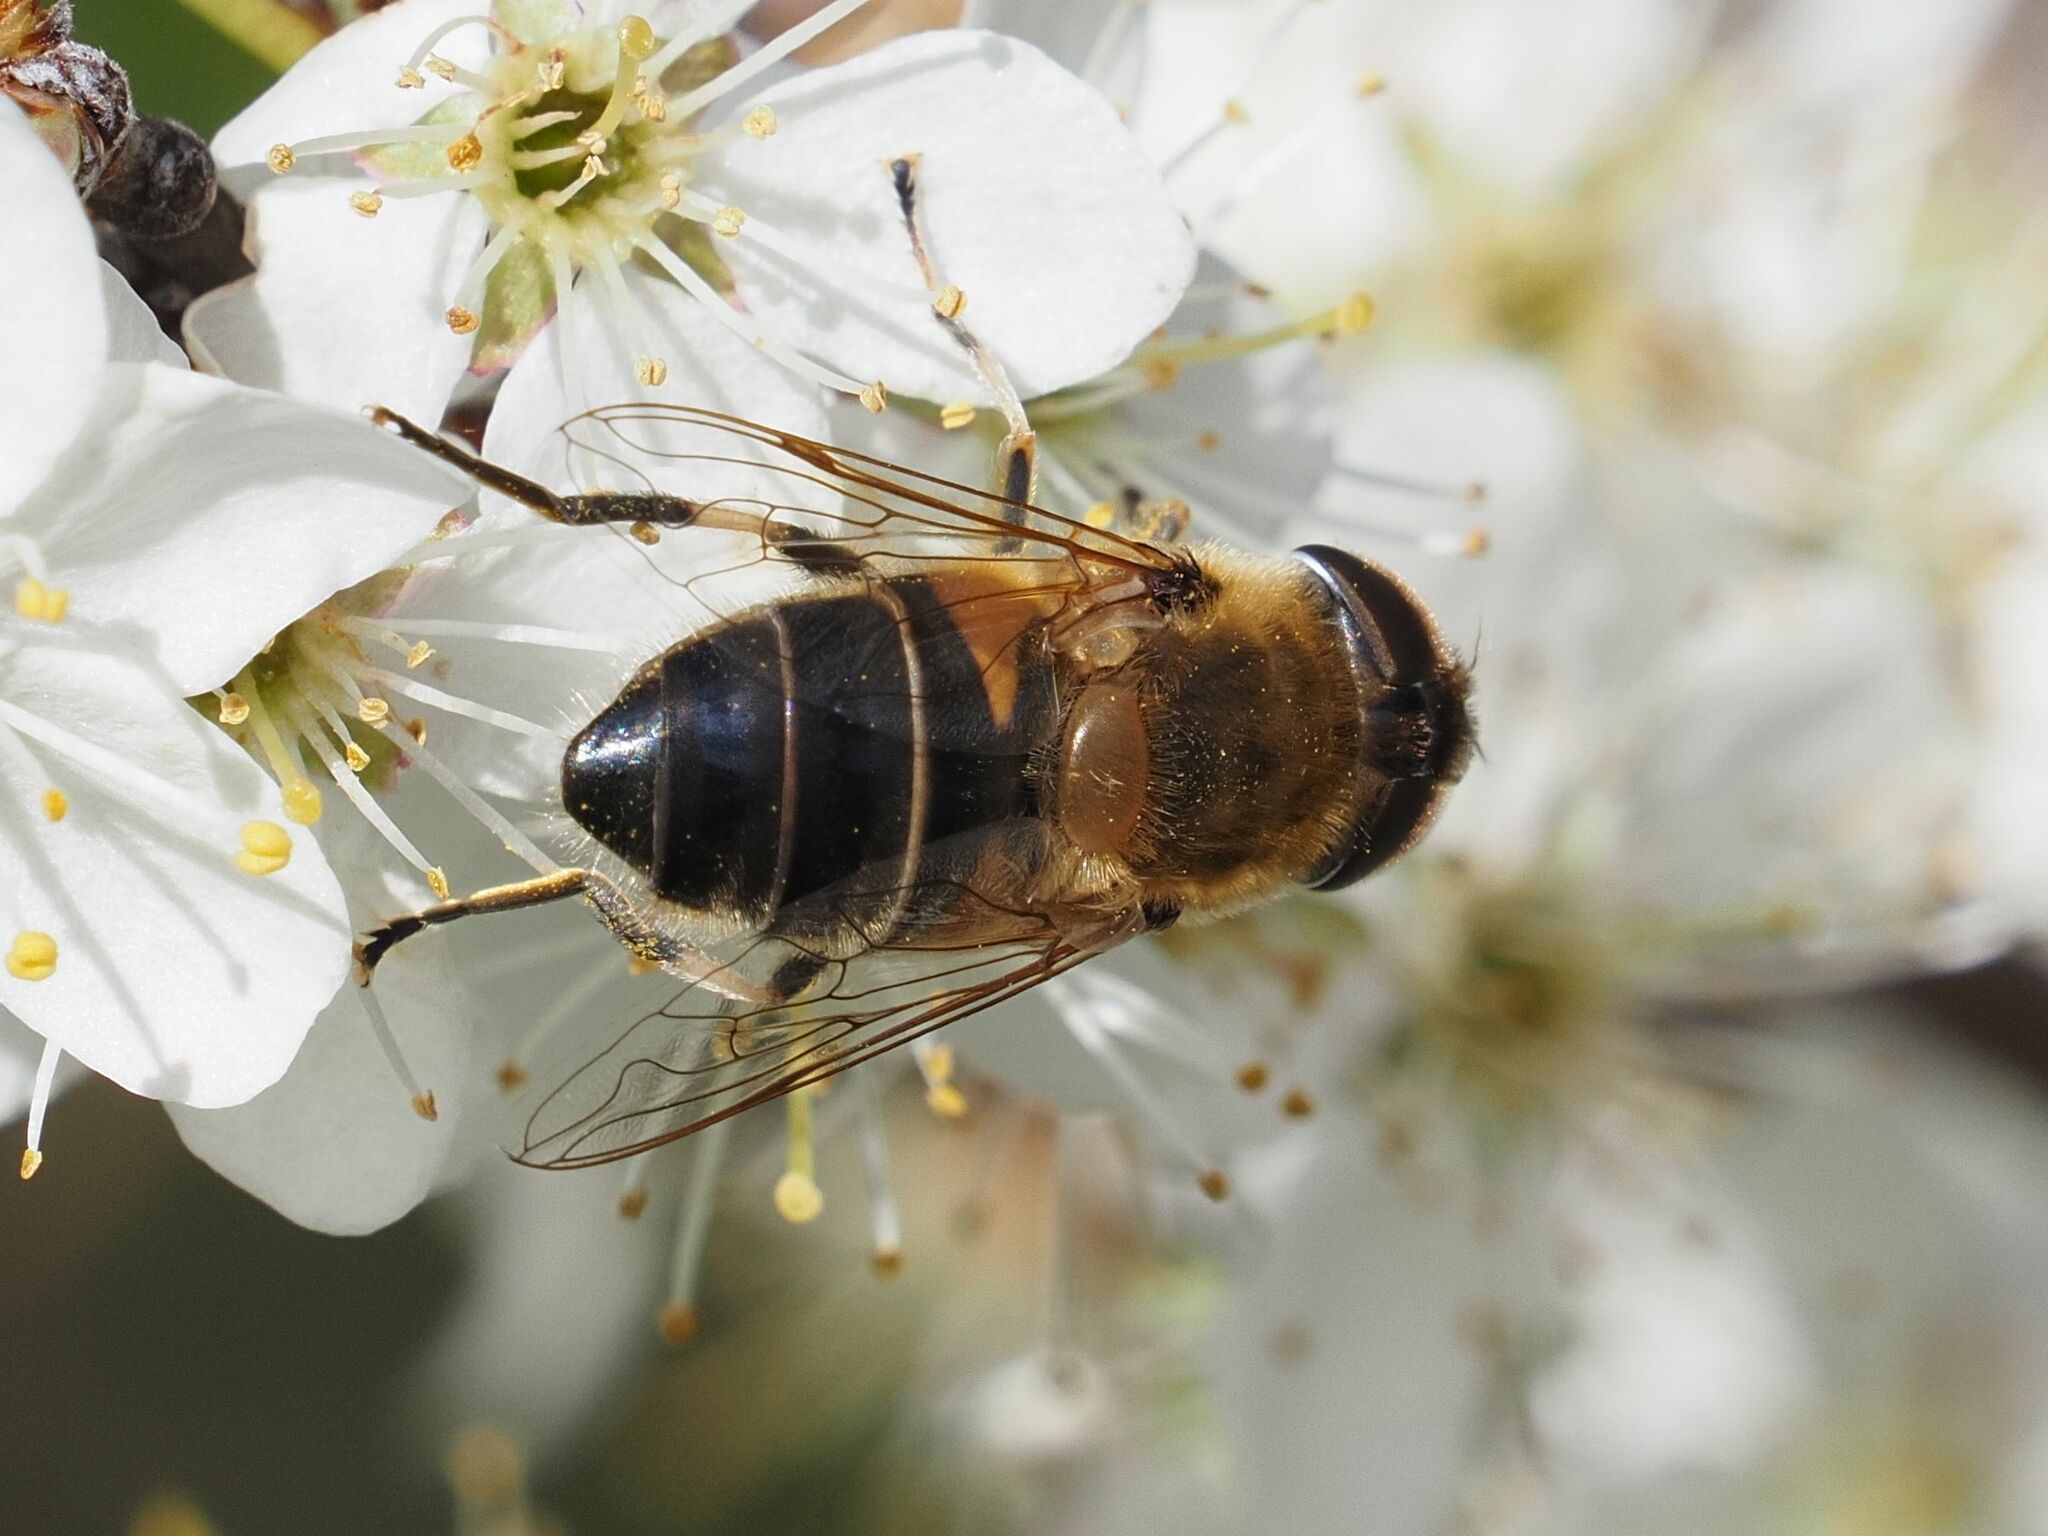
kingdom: Animalia
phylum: Arthropoda
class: Insecta
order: Diptera
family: Syrphidae
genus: Eristalis
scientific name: Eristalis pertinax
